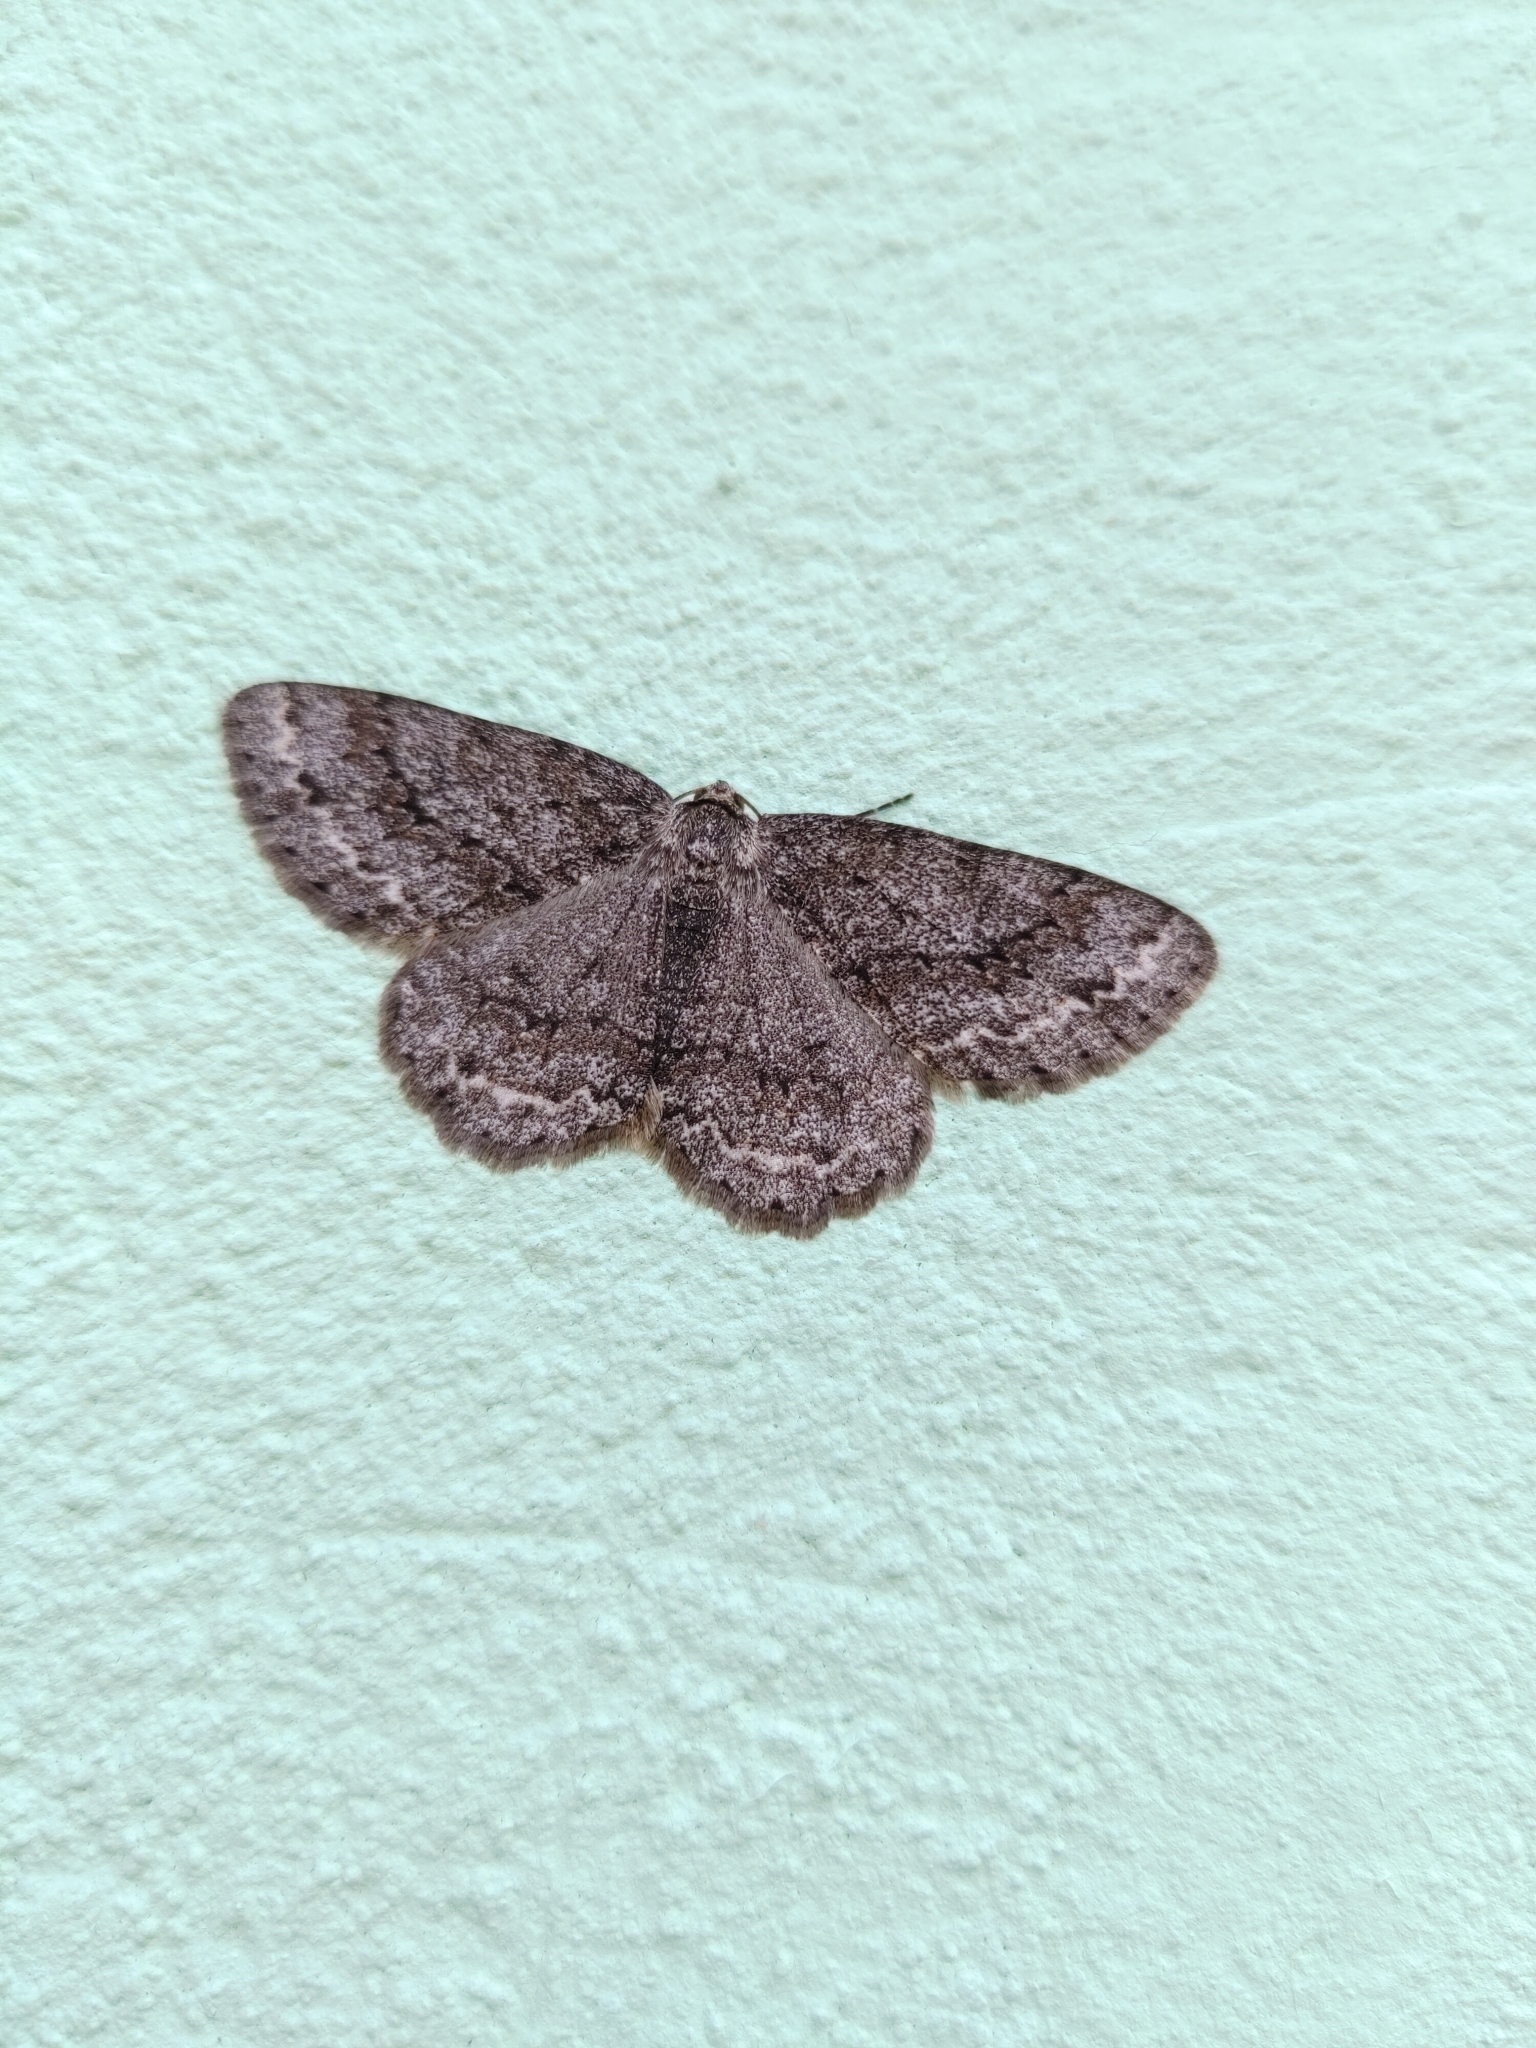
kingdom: Animalia
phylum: Arthropoda
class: Insecta
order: Lepidoptera
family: Geometridae
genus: Ectropis
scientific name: Ectropis crepuscularia
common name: Engrailed
